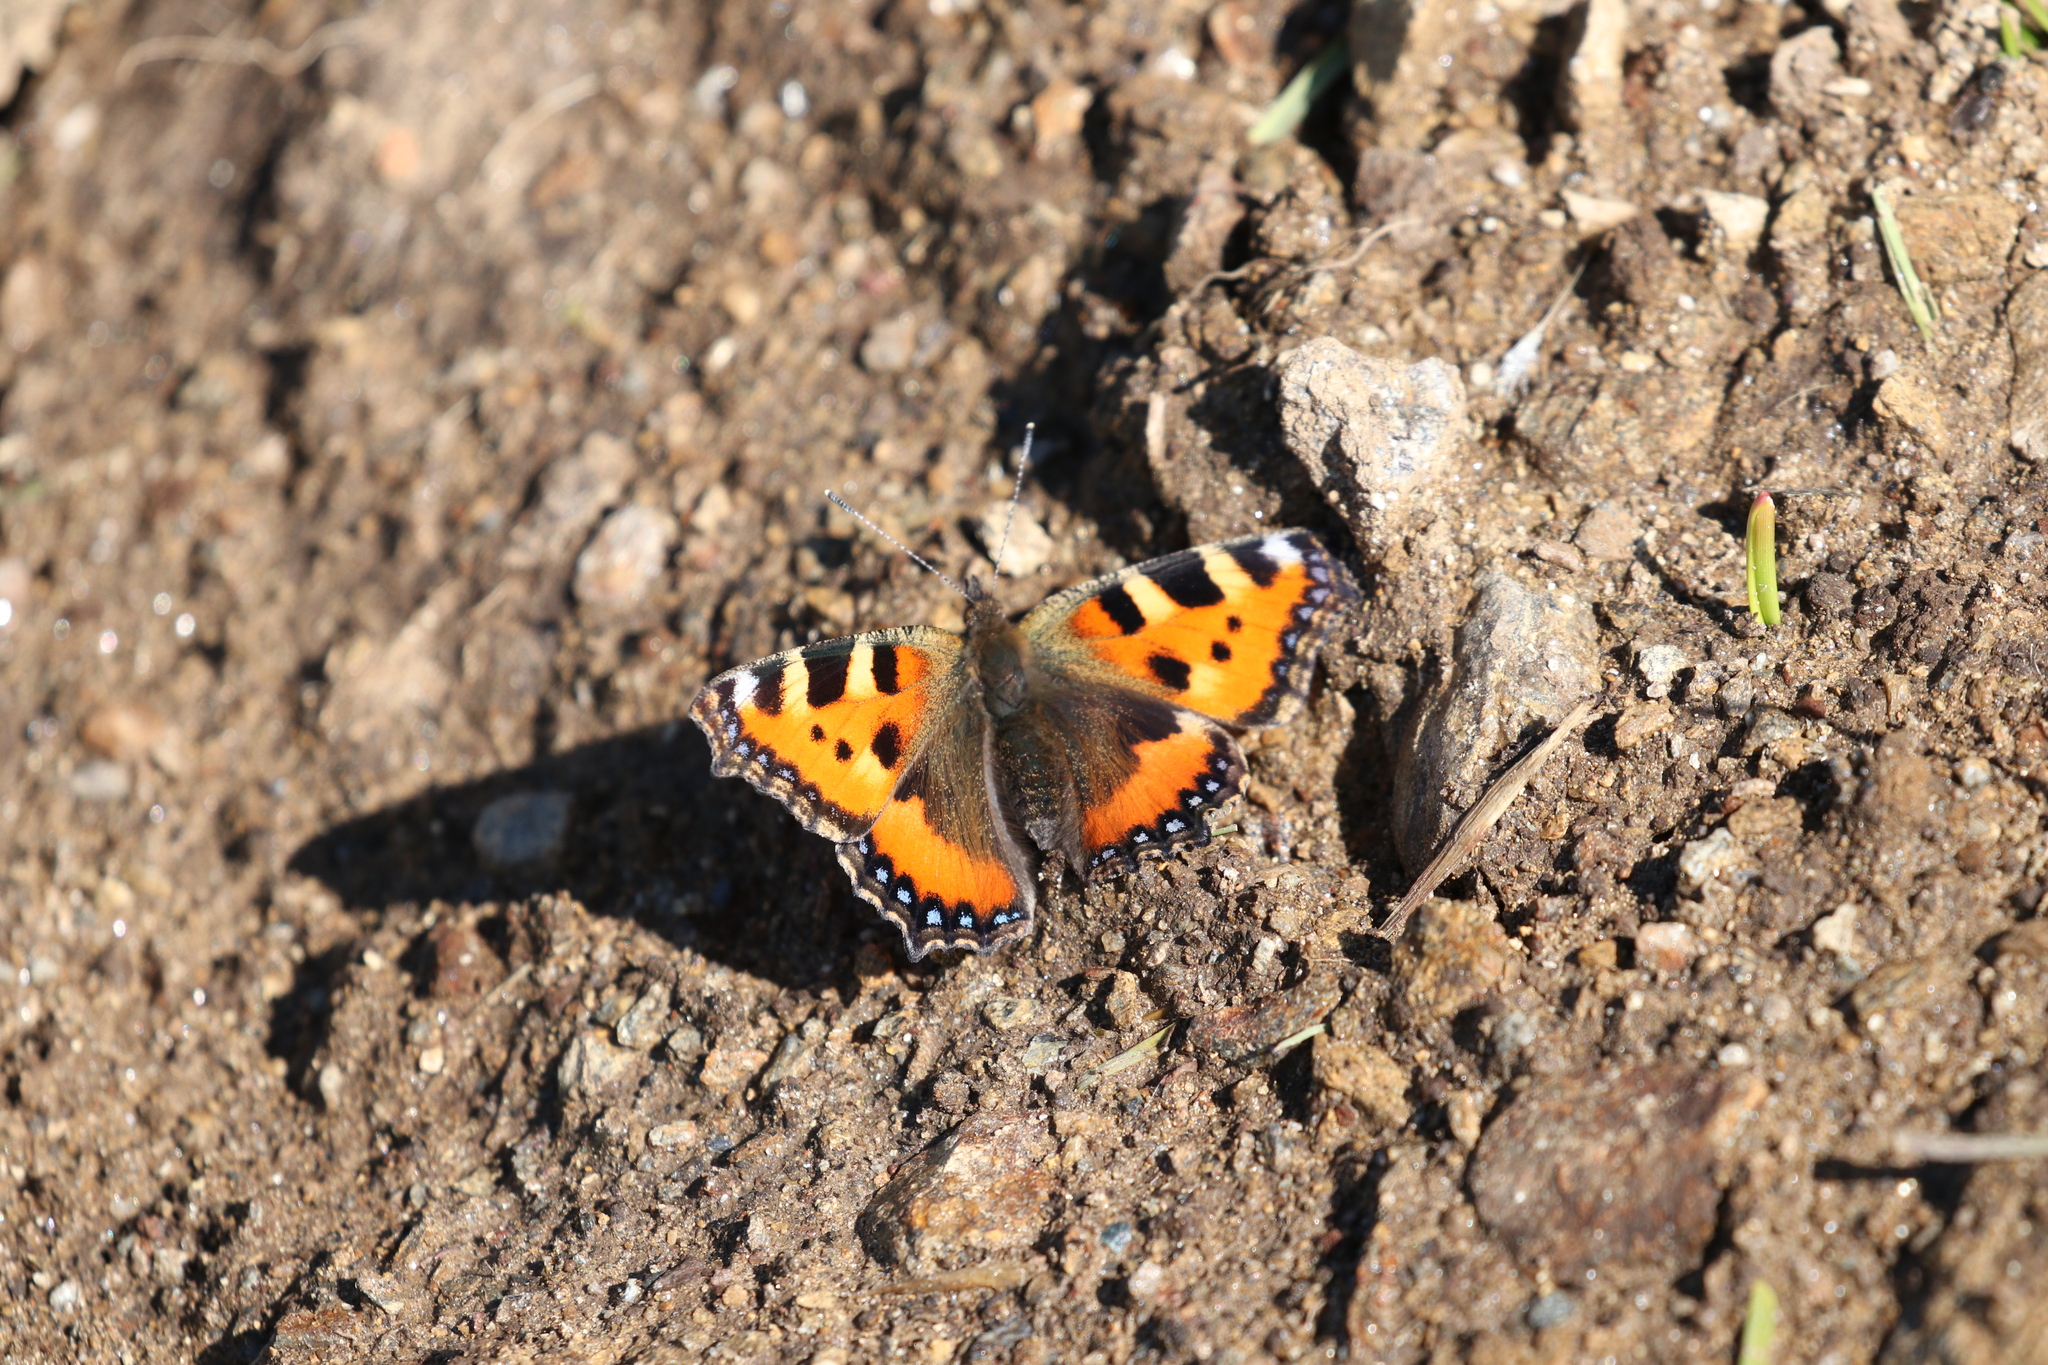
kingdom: Animalia
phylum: Arthropoda
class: Insecta
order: Lepidoptera
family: Nymphalidae
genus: Aglais
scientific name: Aglais urticae
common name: Small tortoiseshell
